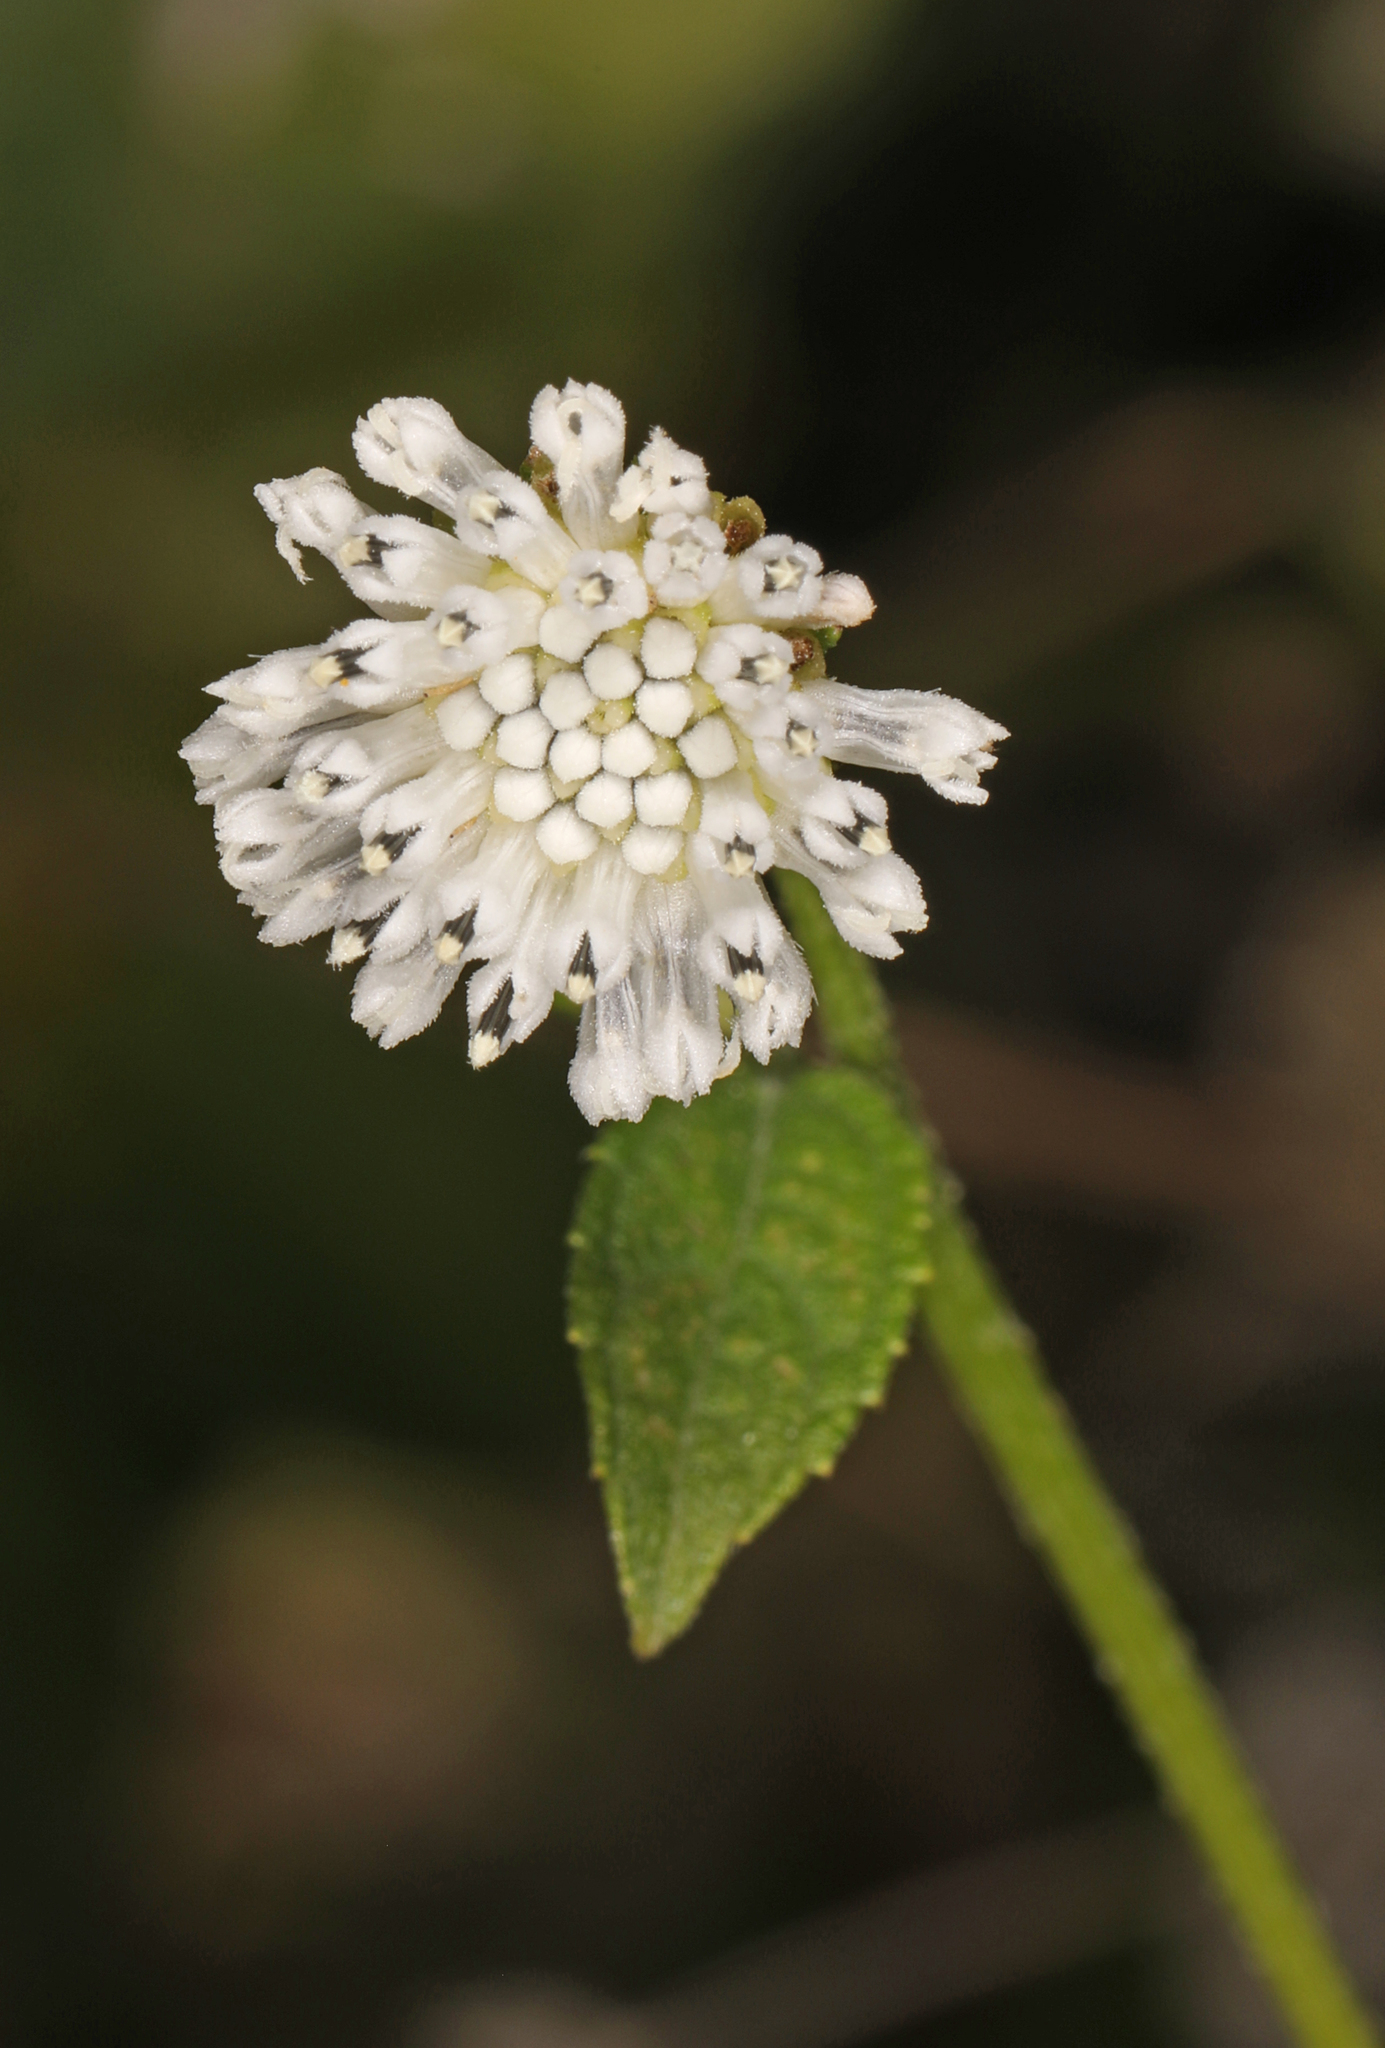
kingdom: Plantae
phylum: Tracheophyta
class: Magnoliopsida
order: Asterales
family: Asteraceae
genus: Melanthera
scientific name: Melanthera nivea
